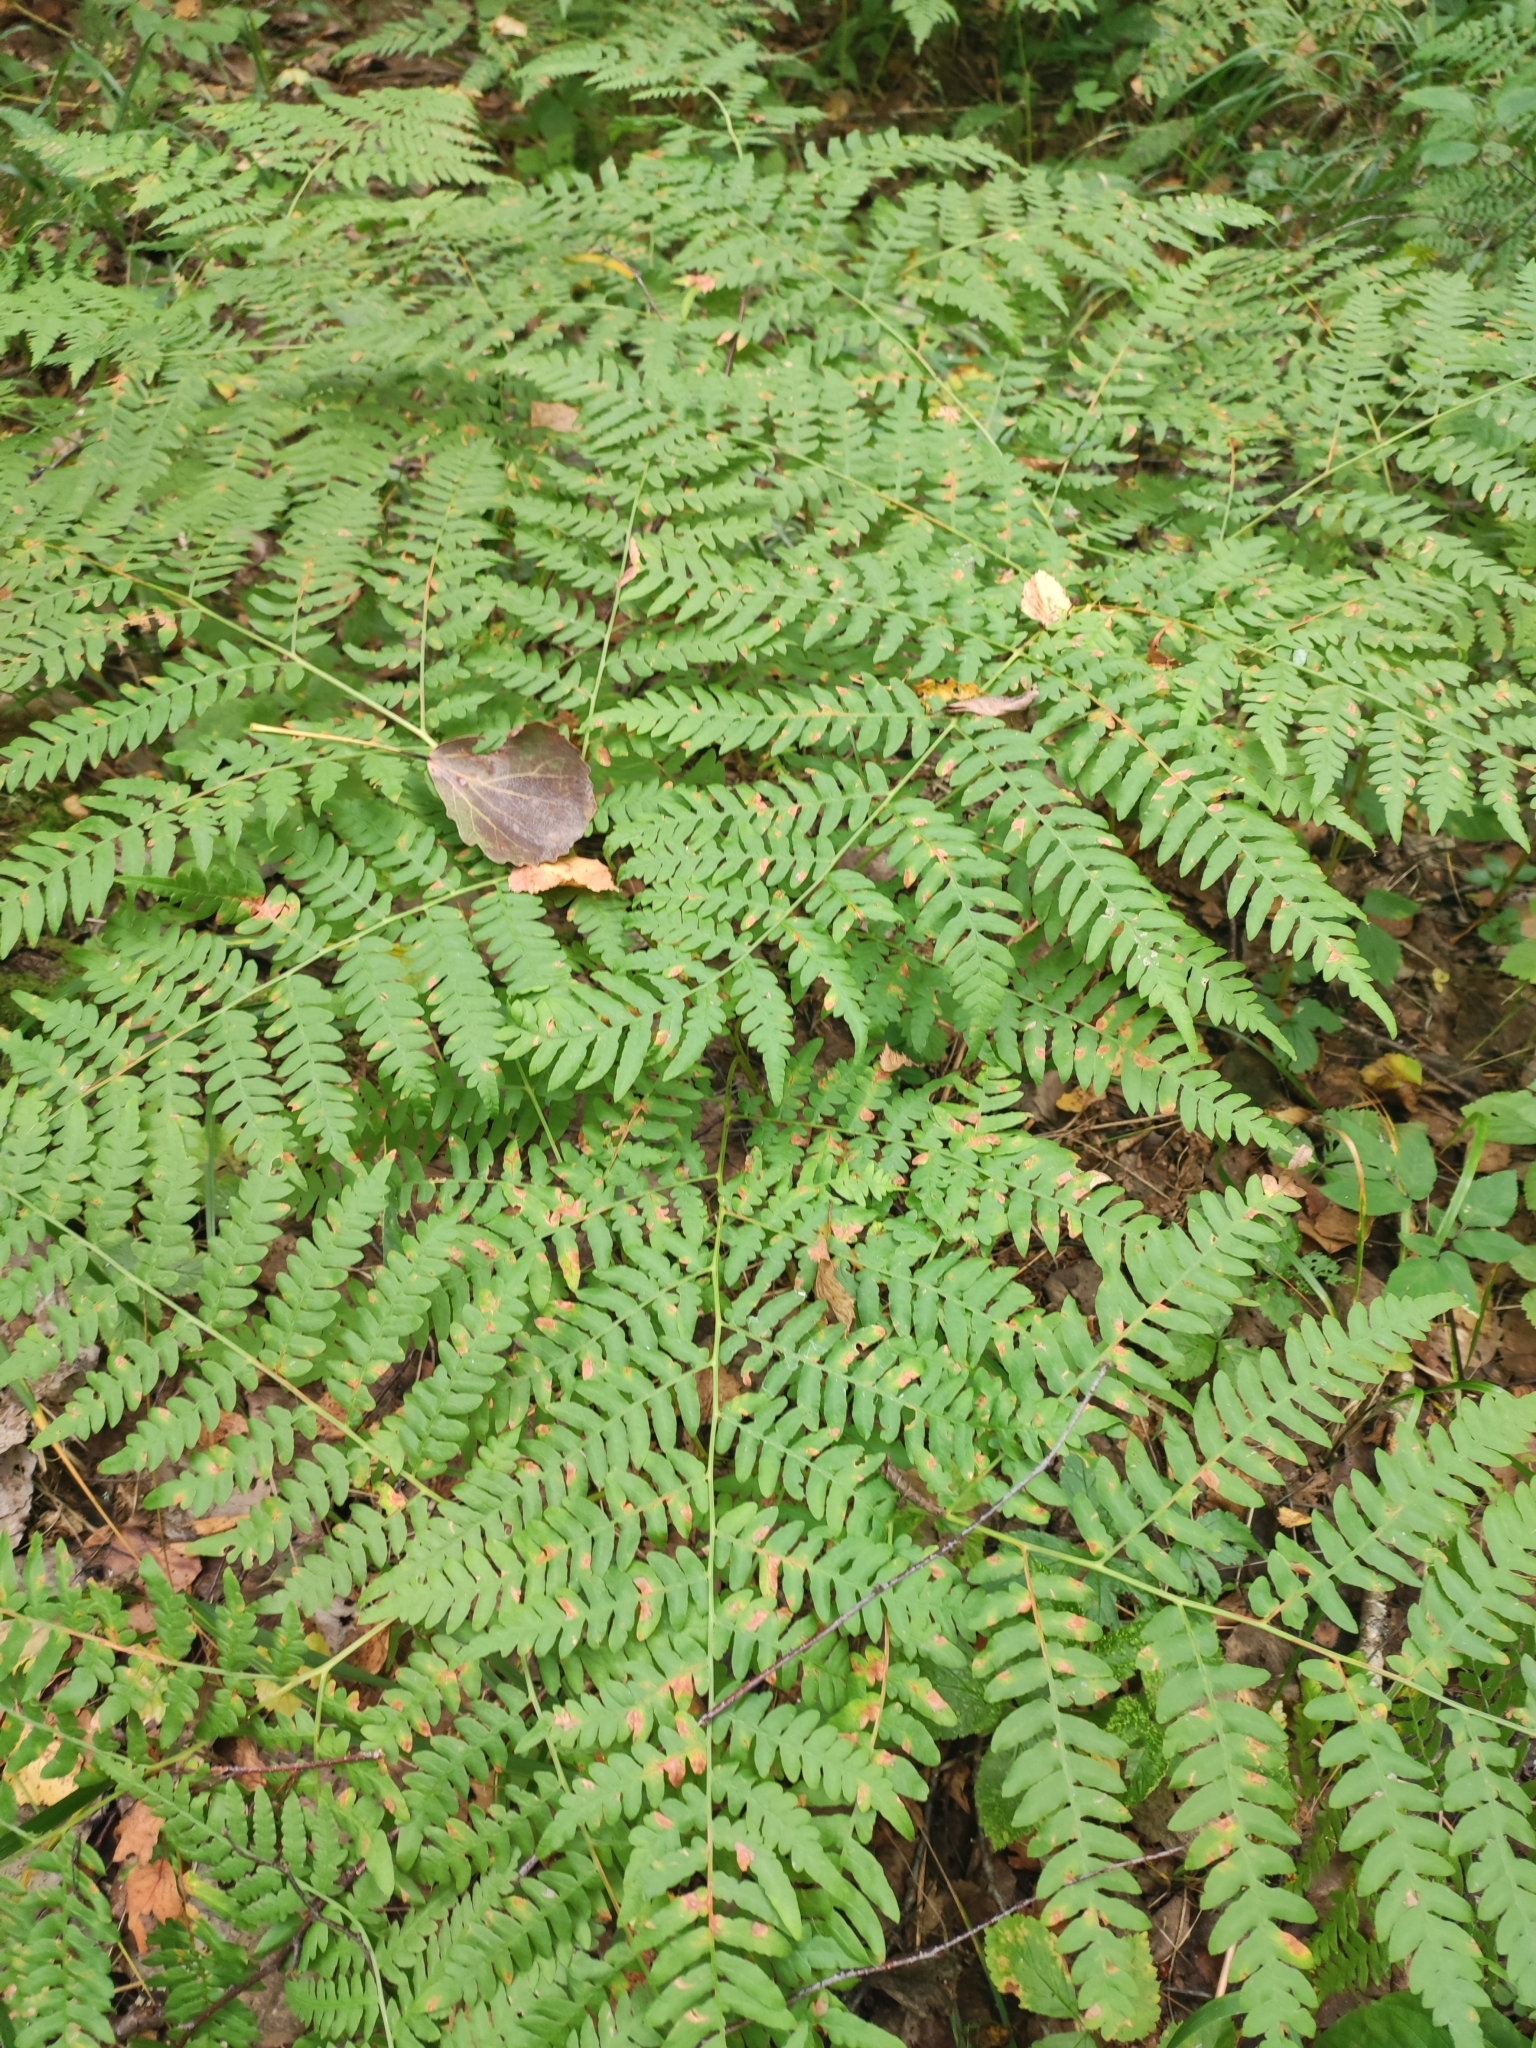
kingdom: Plantae
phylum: Tracheophyta
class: Polypodiopsida
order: Polypodiales
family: Dennstaedtiaceae
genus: Pteridium
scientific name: Pteridium aquilinum
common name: Bracken
